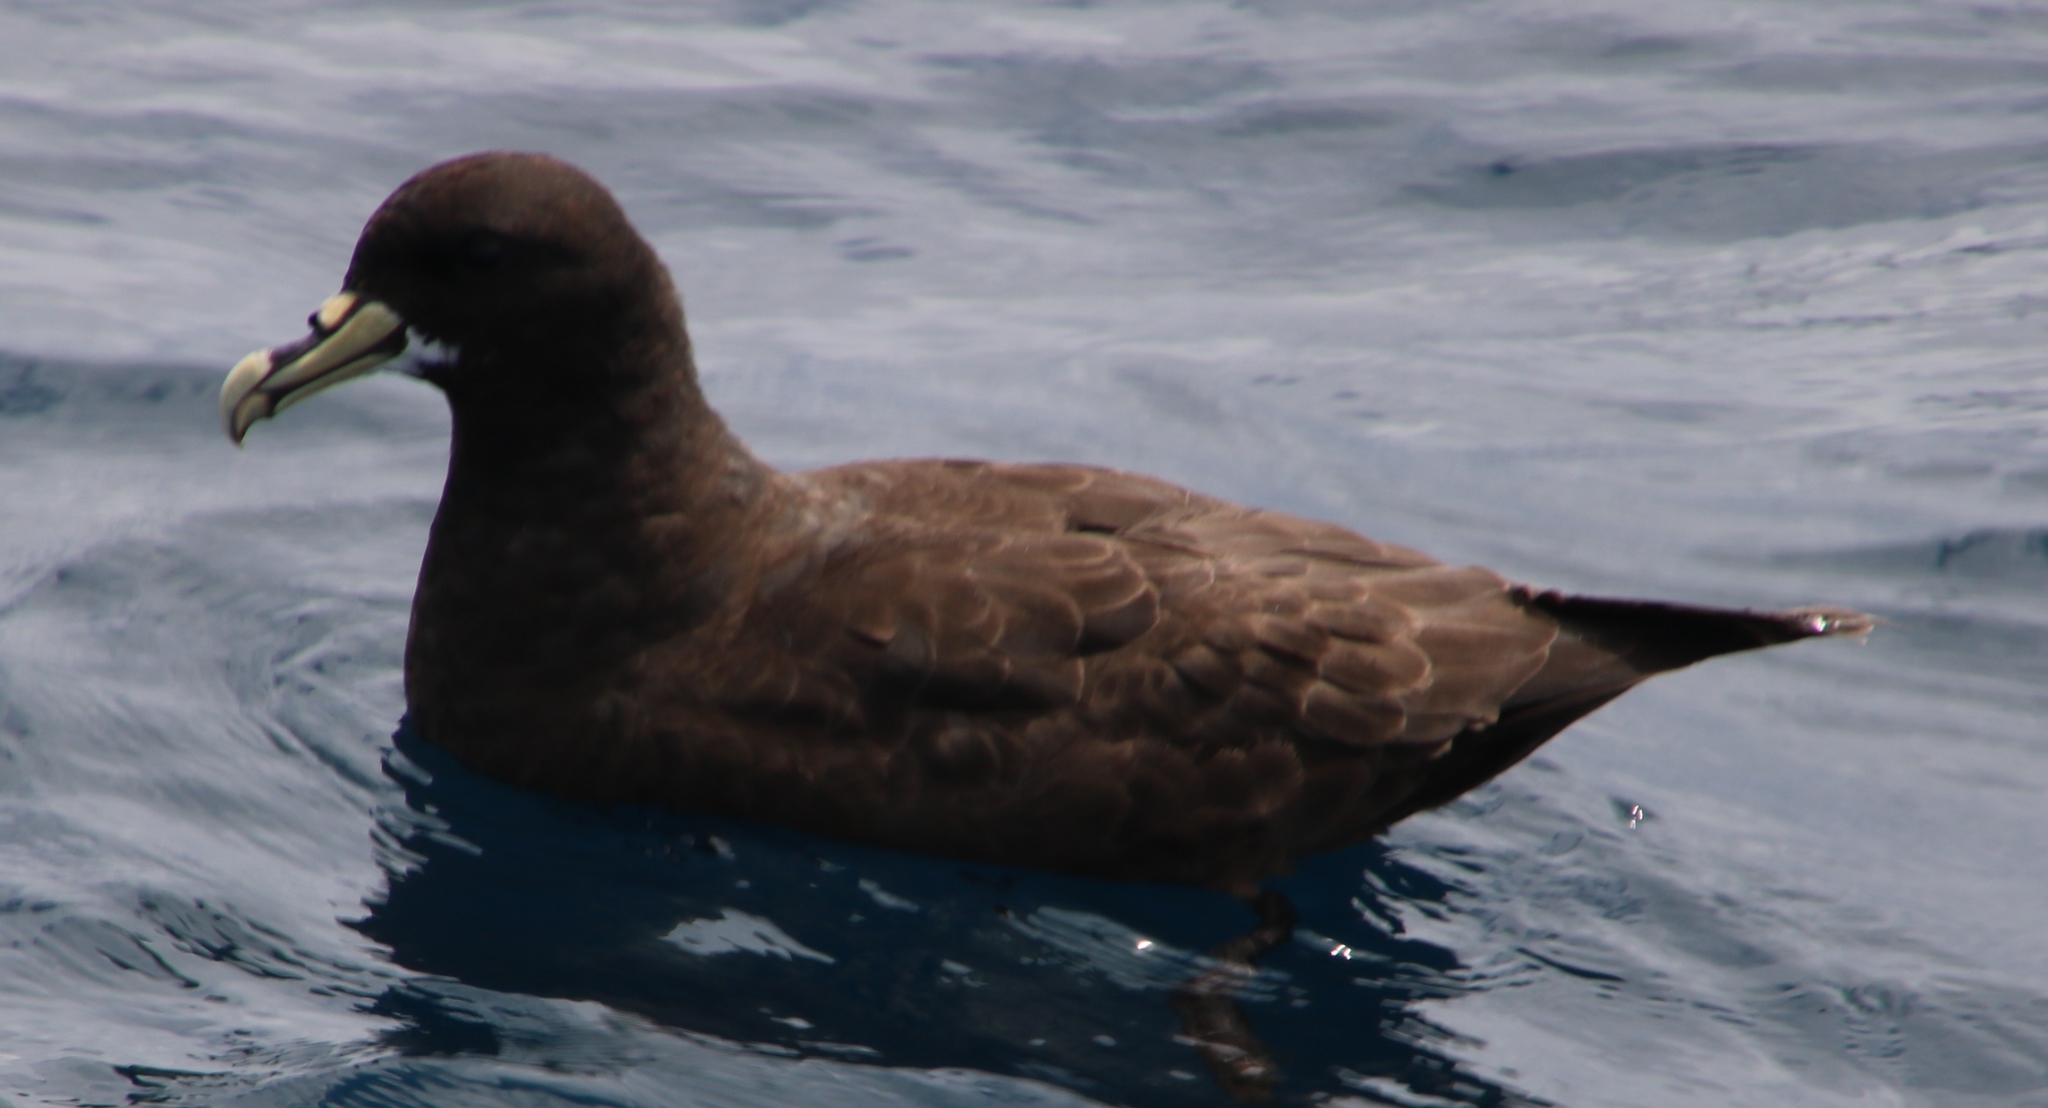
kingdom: Animalia
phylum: Chordata
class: Aves
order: Procellariiformes
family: Procellariidae
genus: Procellaria
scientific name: Procellaria aequinoctialis
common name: White-chinned petrel
